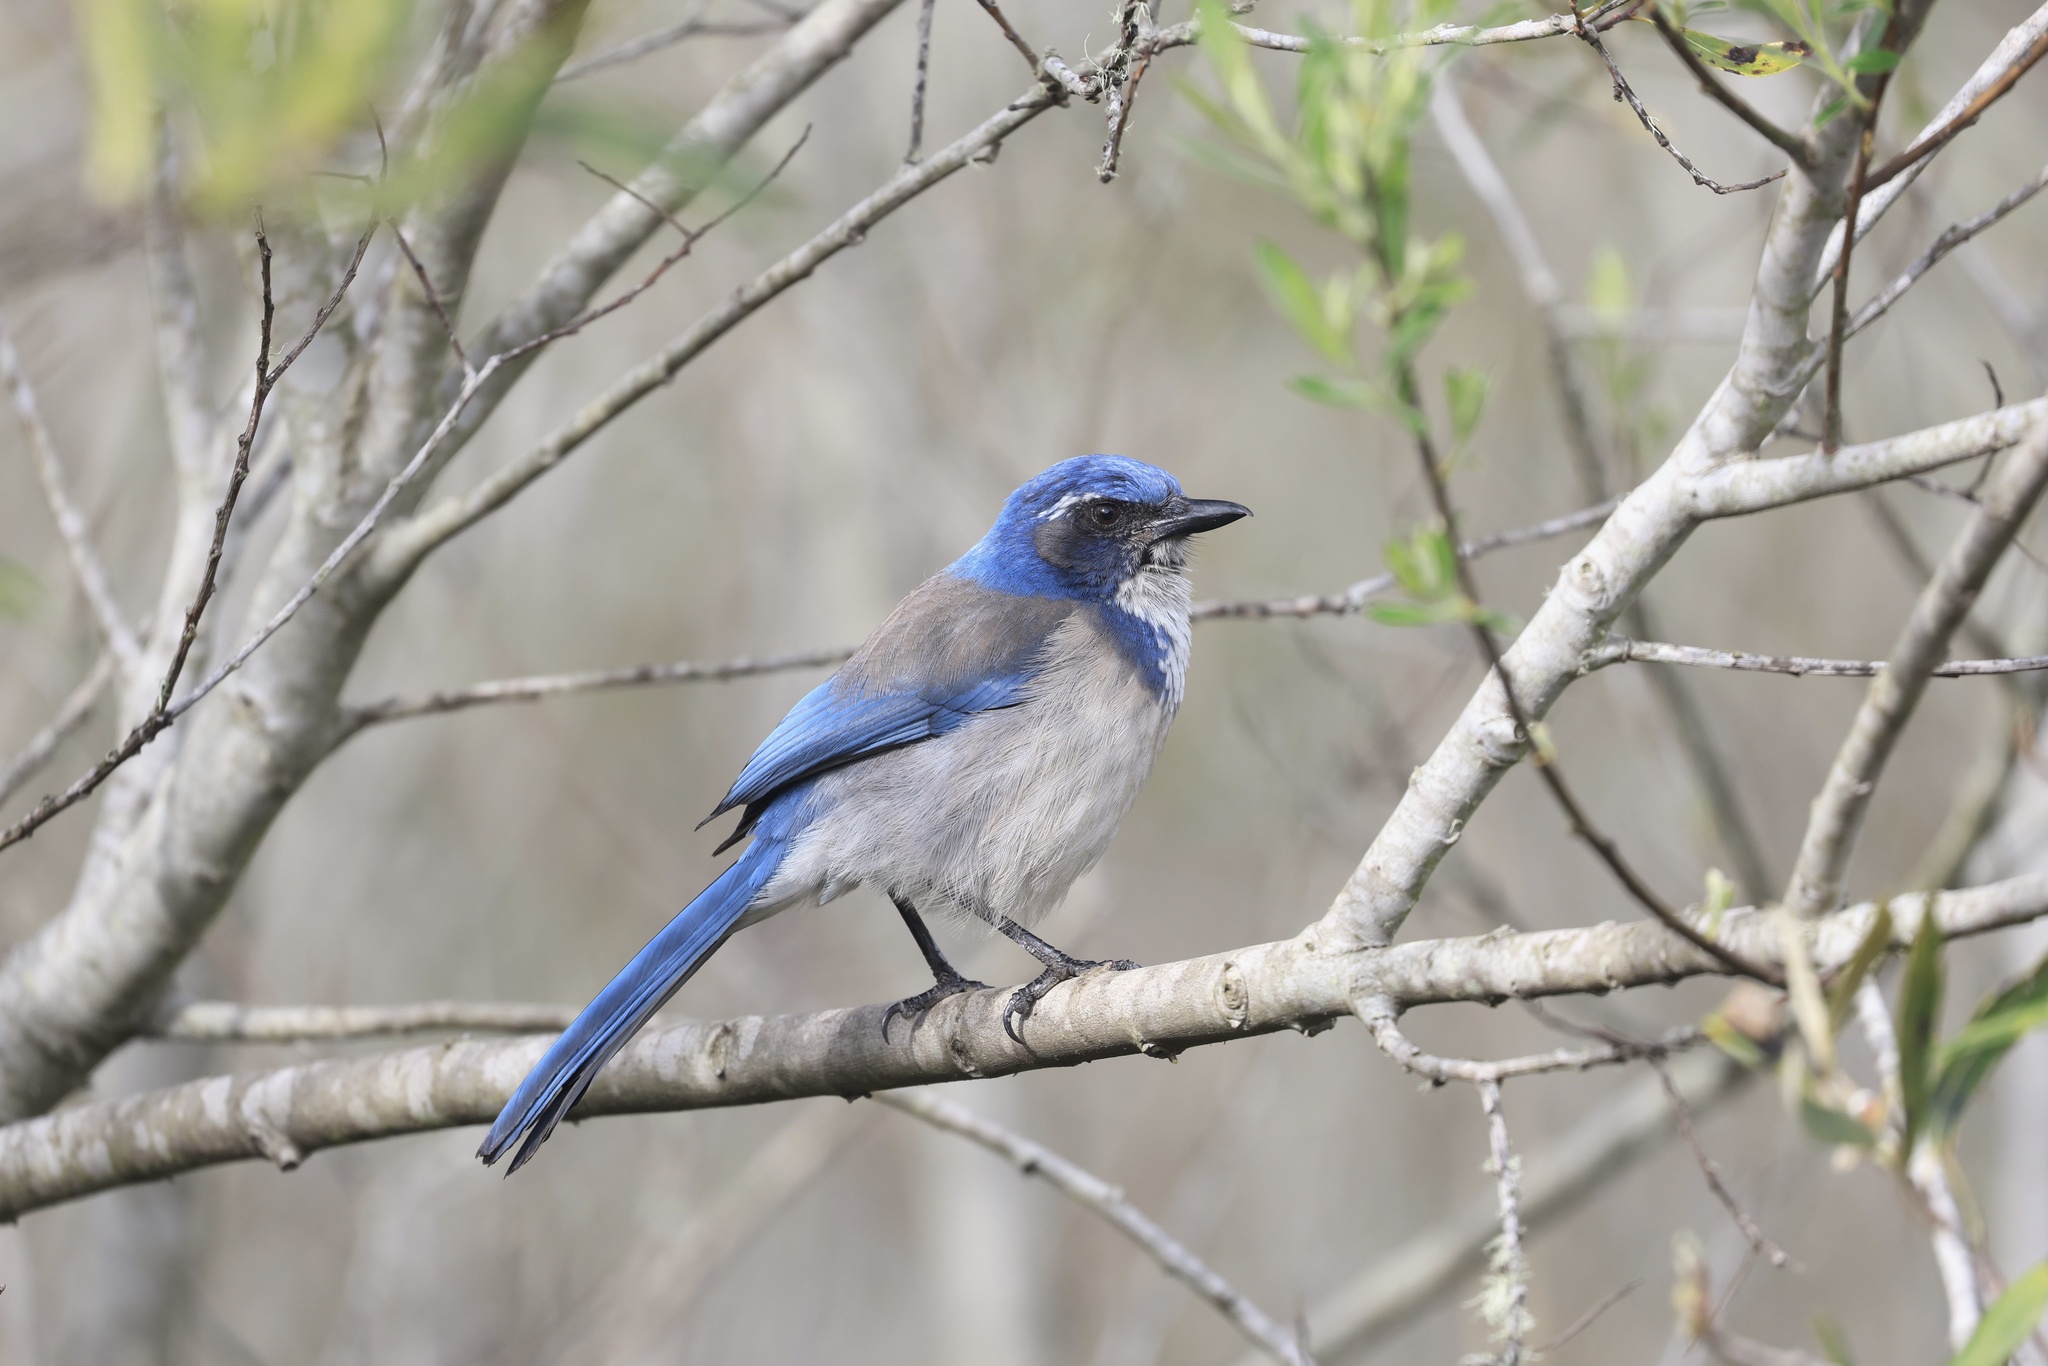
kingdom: Animalia
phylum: Chordata
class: Aves
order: Passeriformes
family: Corvidae
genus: Aphelocoma
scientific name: Aphelocoma californica
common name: California scrub-jay
